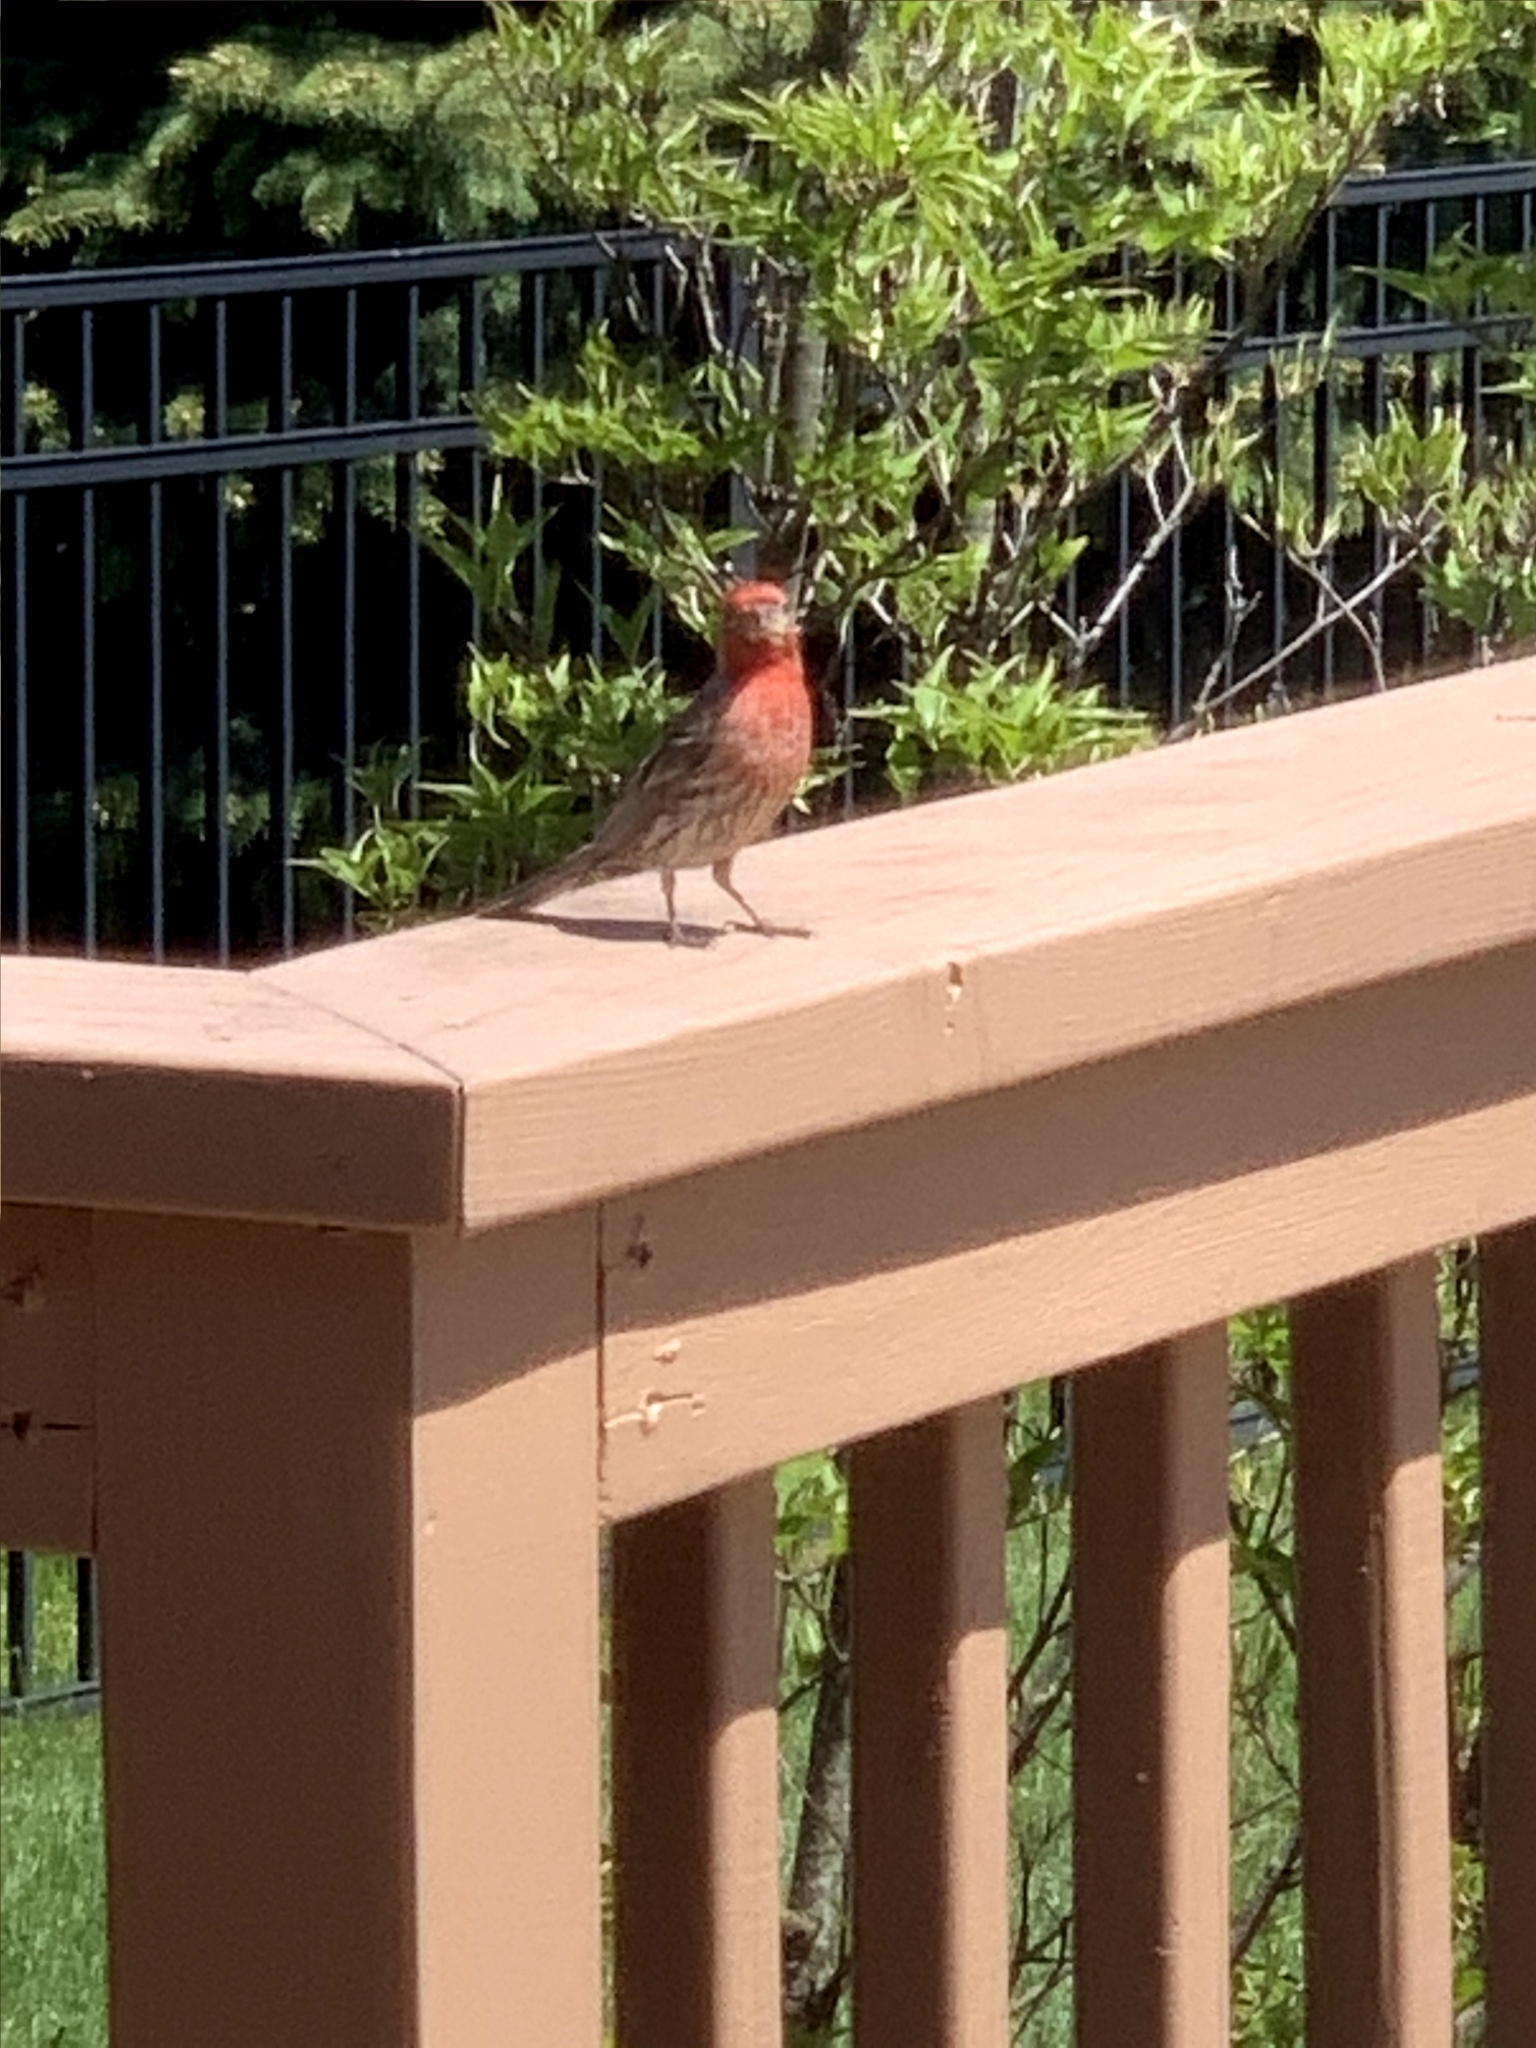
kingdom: Animalia
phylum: Chordata
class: Aves
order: Passeriformes
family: Fringillidae
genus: Haemorhous
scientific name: Haemorhous mexicanus
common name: House finch
